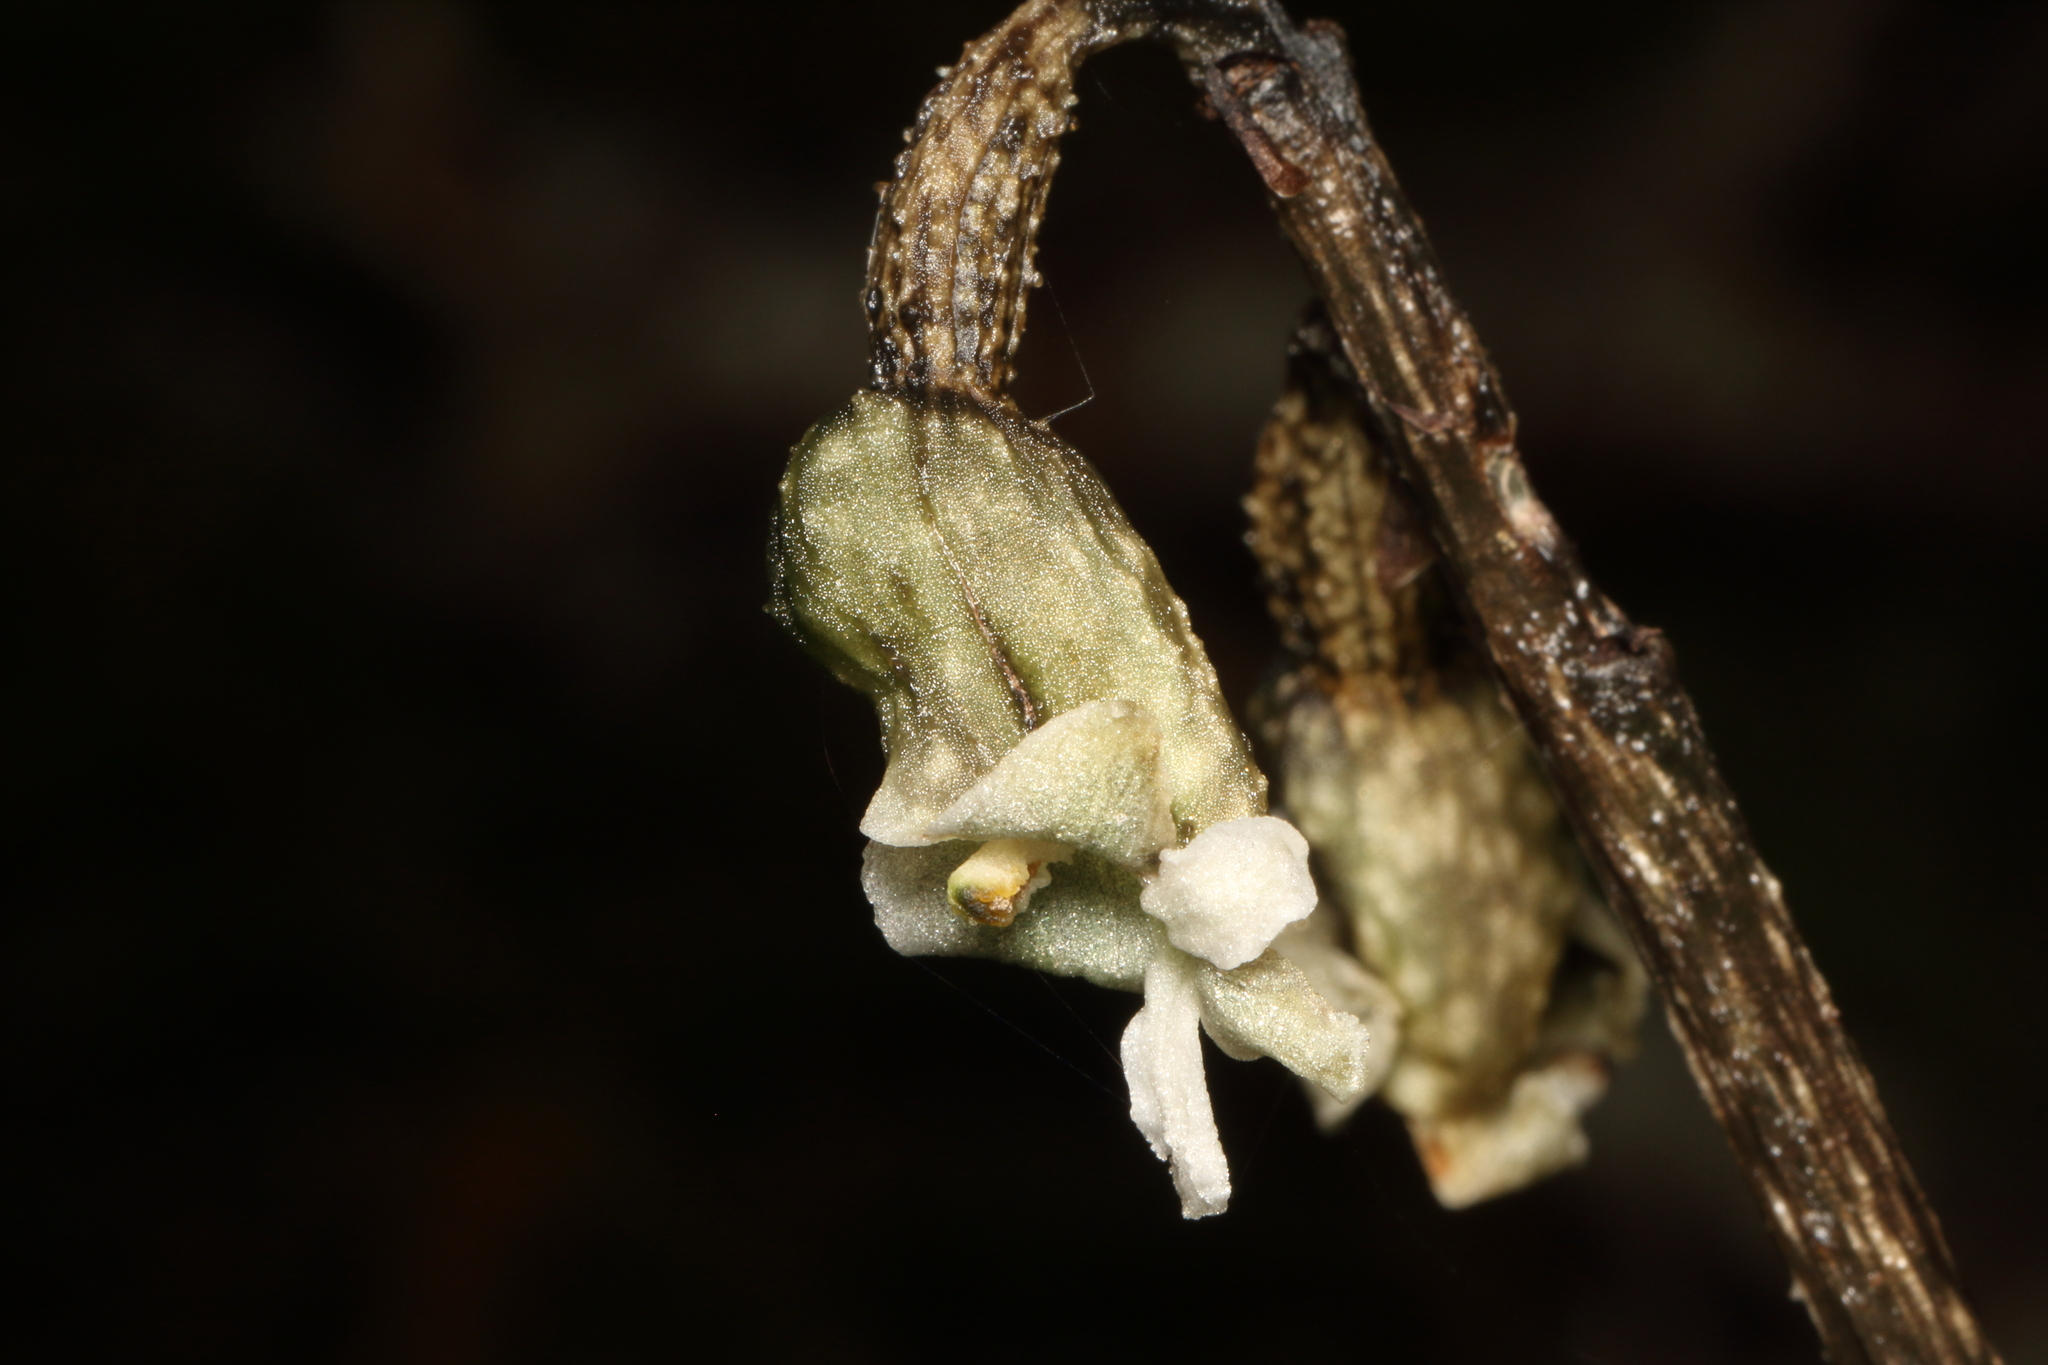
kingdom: Plantae
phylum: Tracheophyta
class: Liliopsida
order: Asparagales
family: Orchidaceae
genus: Gastrodia
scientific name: Gastrodia cunninghamii
